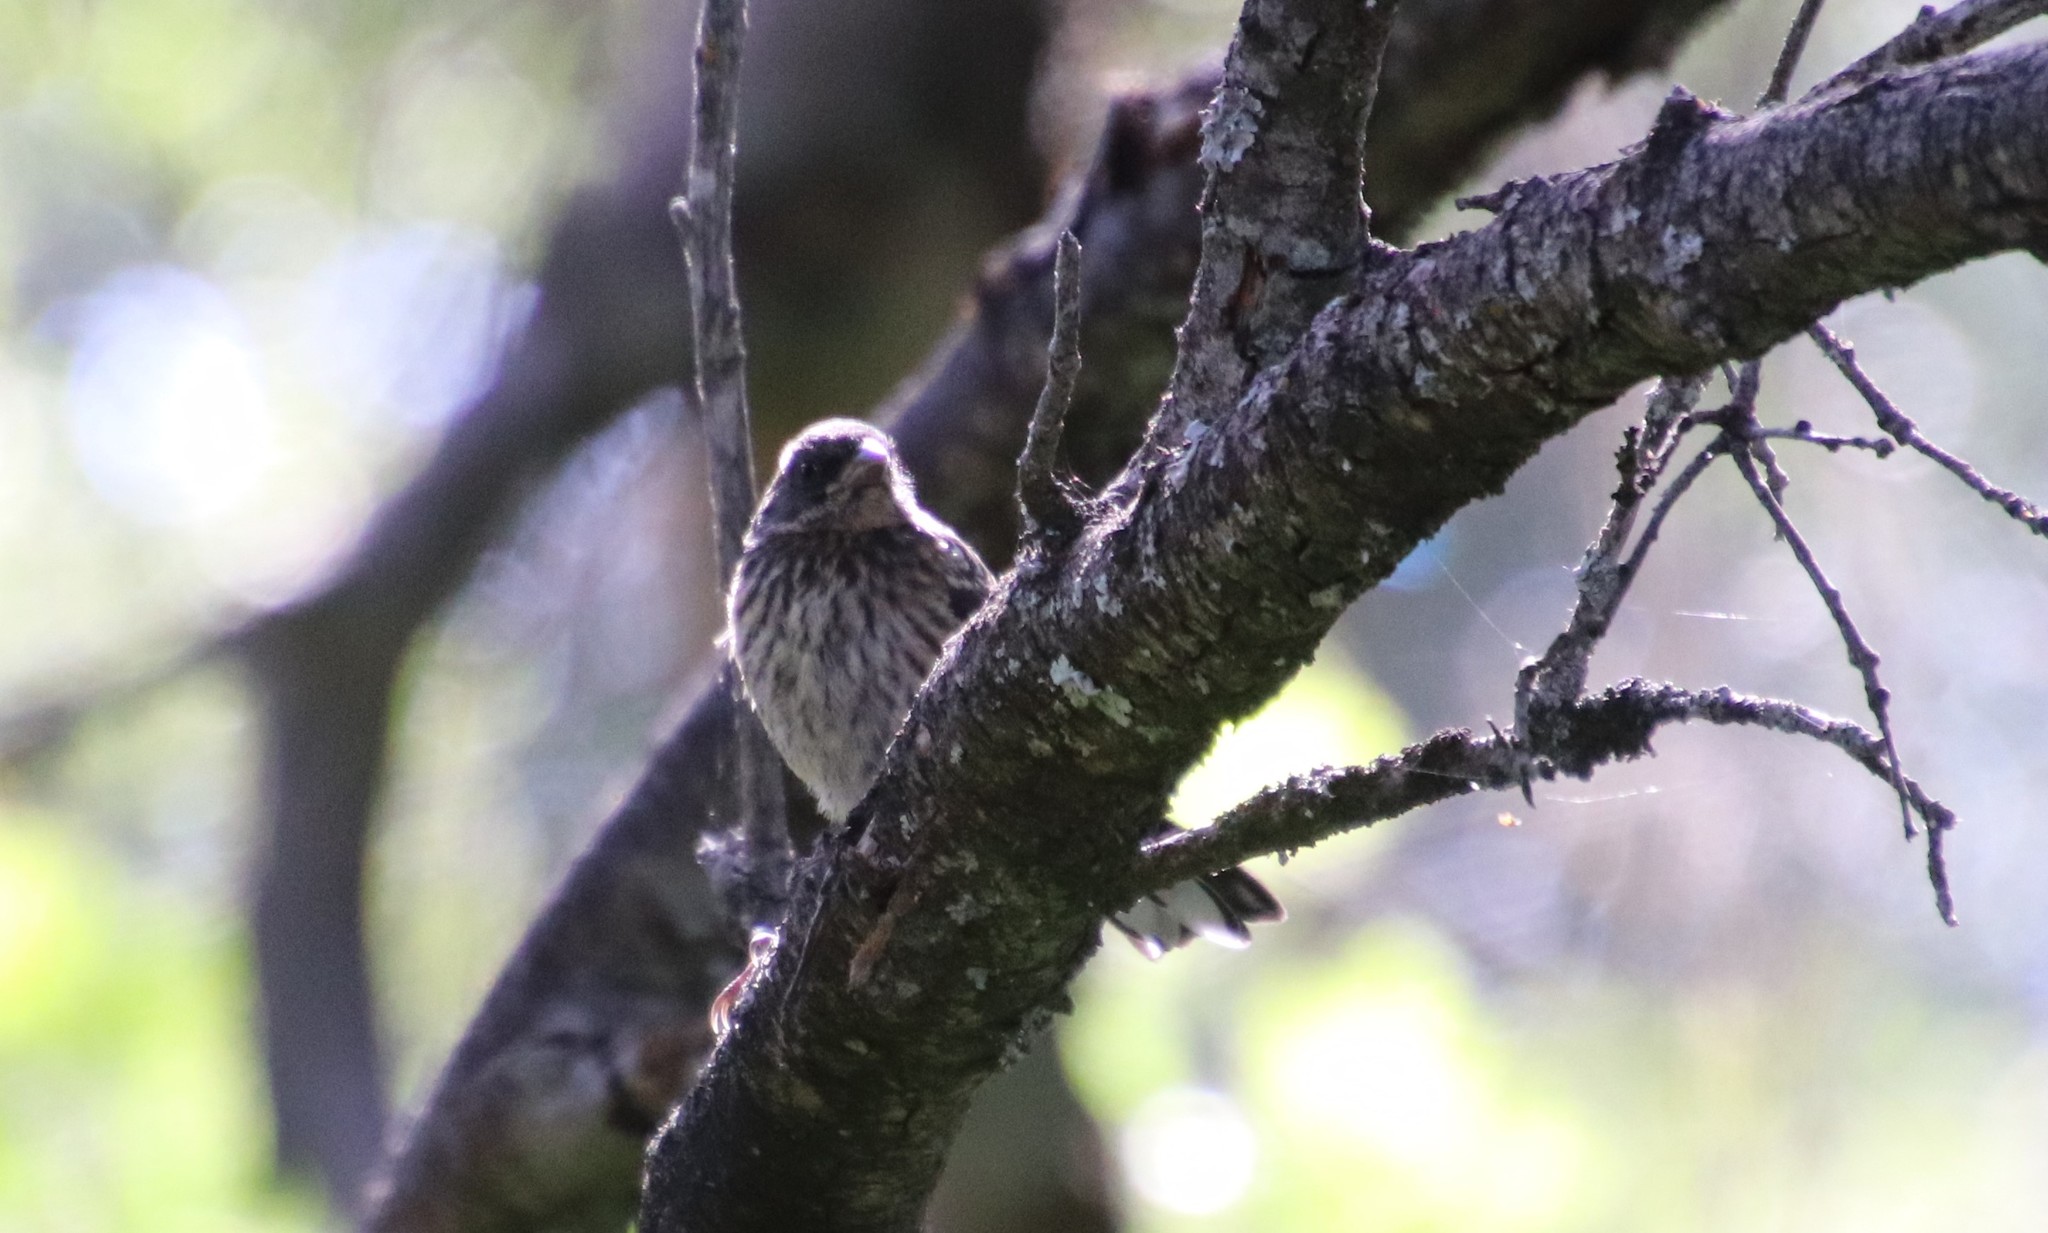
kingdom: Animalia
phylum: Chordata
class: Aves
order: Passeriformes
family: Passerellidae
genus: Pipilo
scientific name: Pipilo maculatus
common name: Spotted towhee
